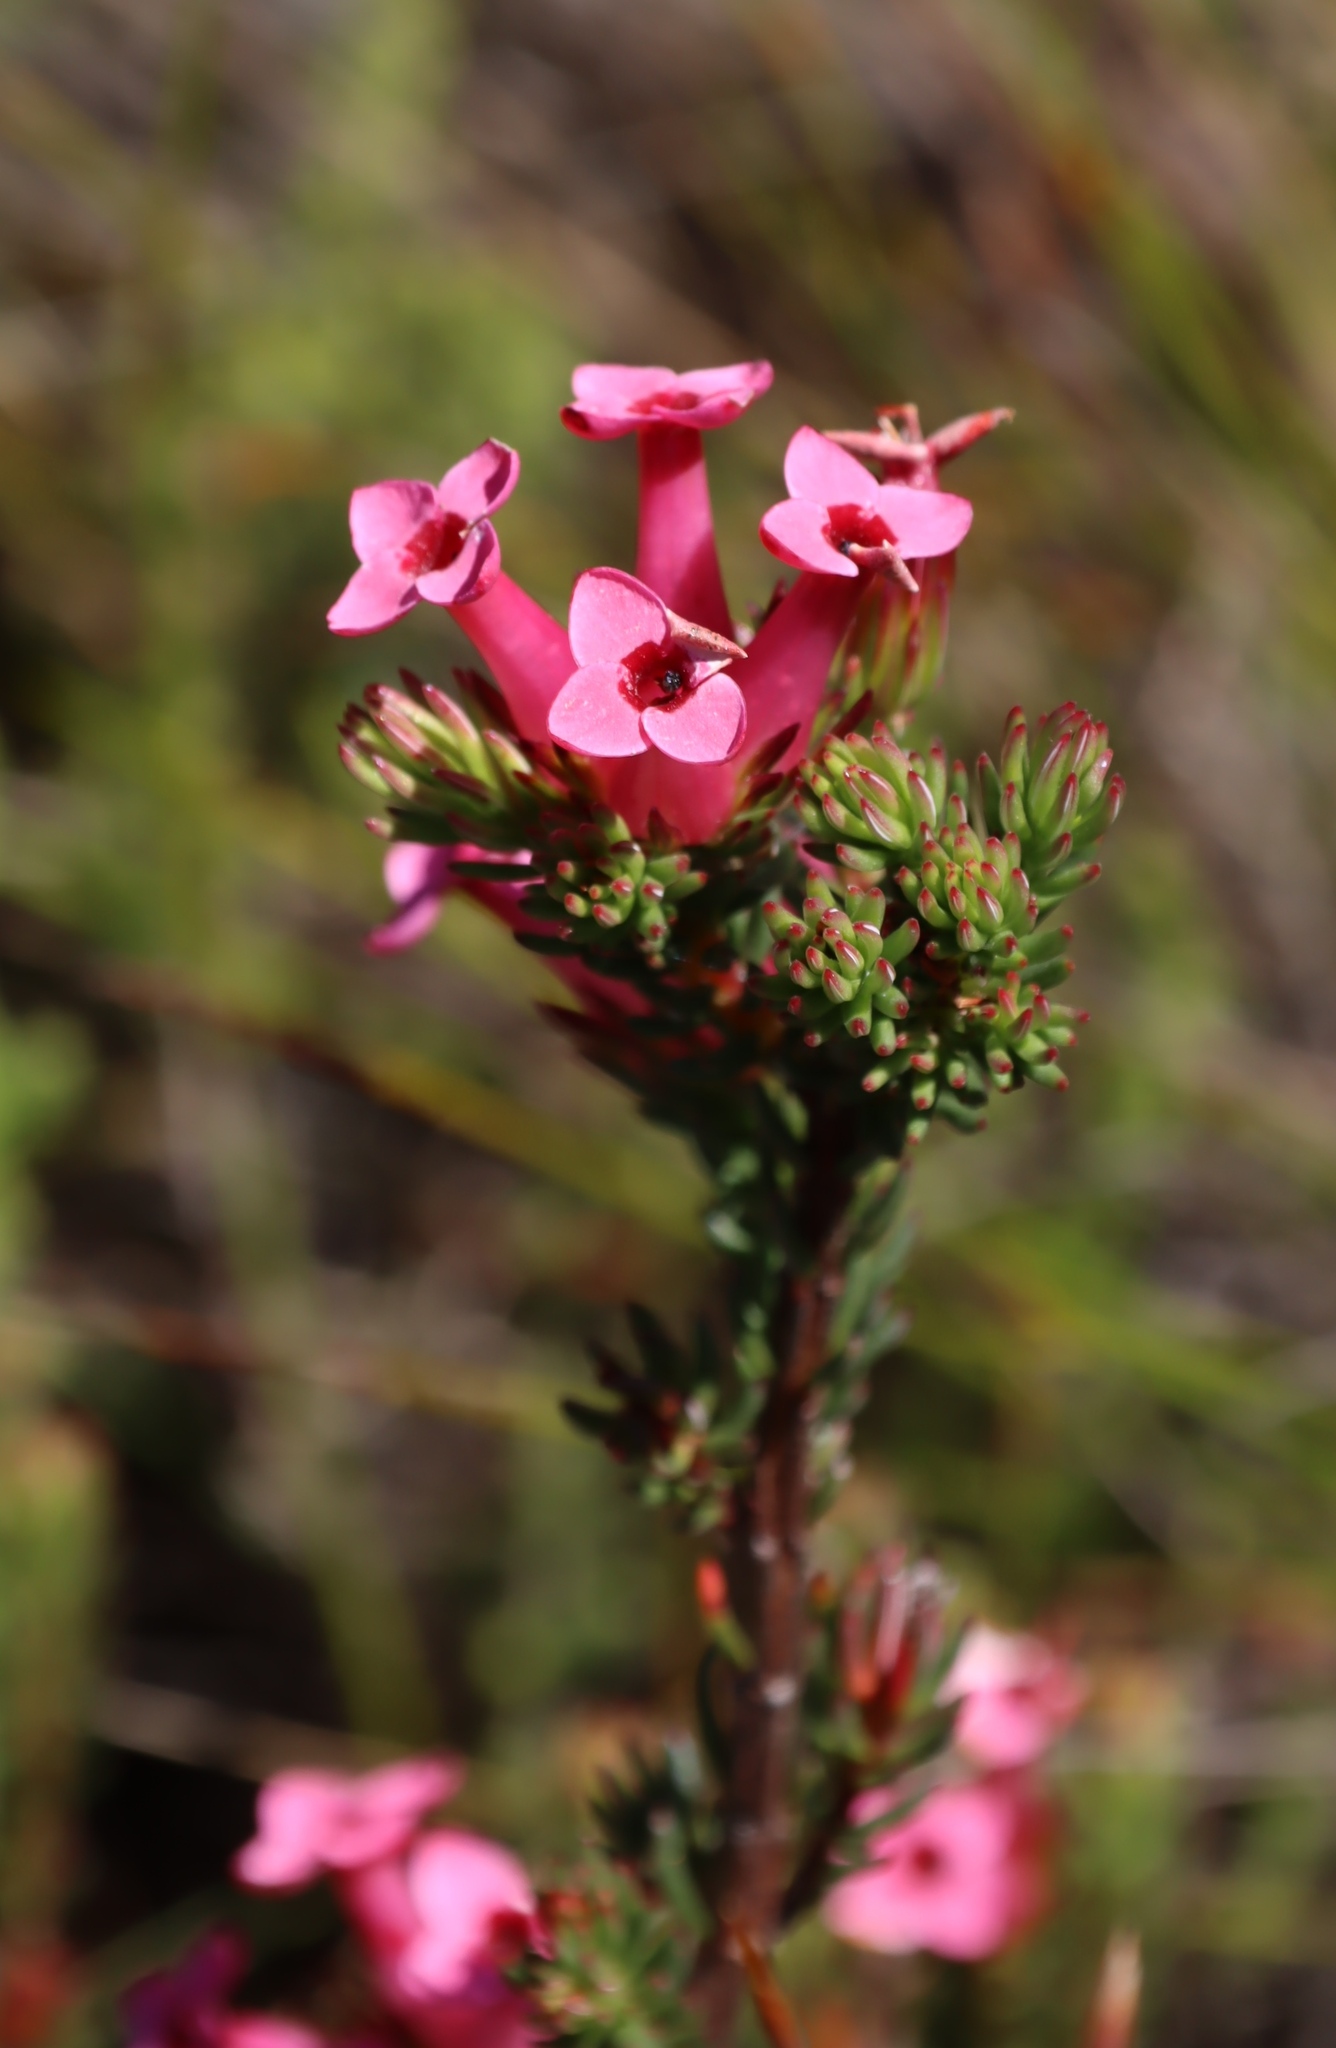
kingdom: Plantae
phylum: Tracheophyta
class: Magnoliopsida
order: Ericales
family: Ericaceae
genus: Erica
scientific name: Erica fastigiata
